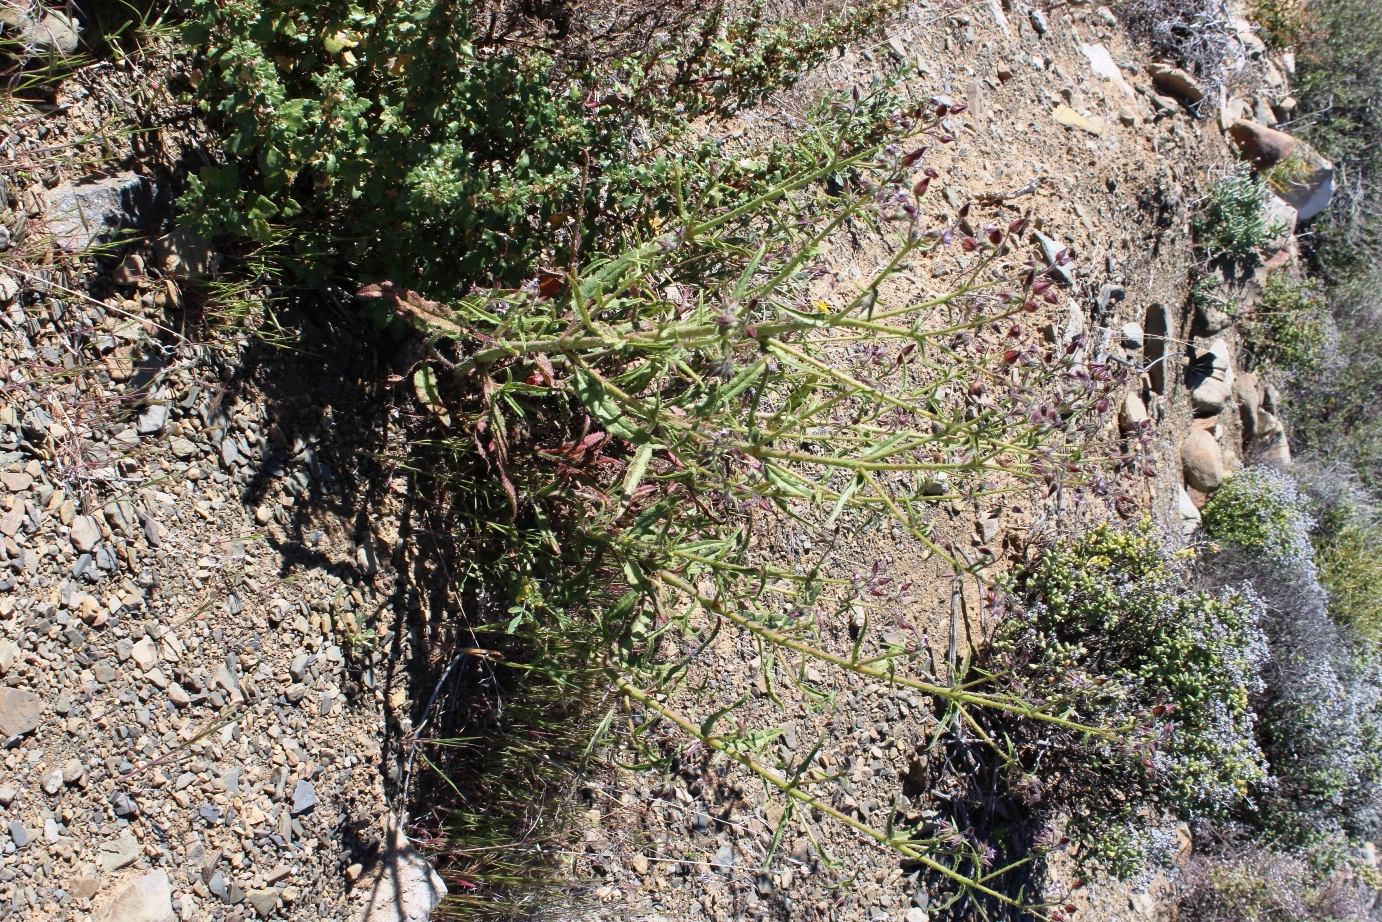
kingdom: Plantae
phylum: Tracheophyta
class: Magnoliopsida
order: Boraginales
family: Boraginaceae
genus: Trichodesma
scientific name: Trichodesma africanum
